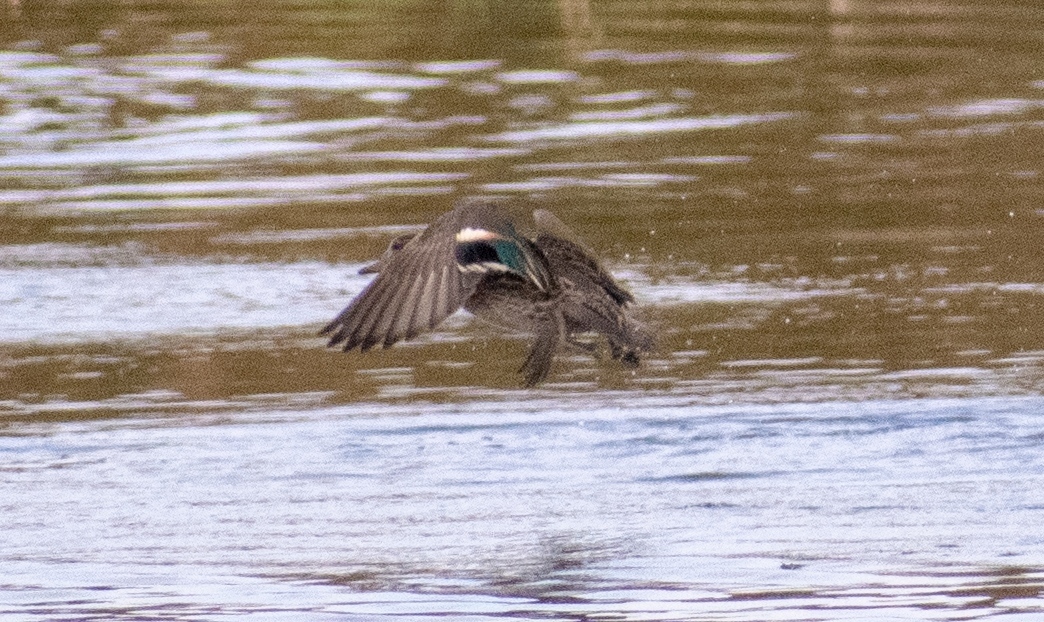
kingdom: Animalia
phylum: Chordata
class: Aves
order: Anseriformes
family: Anatidae
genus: Anas
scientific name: Anas crecca
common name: Eurasian teal
